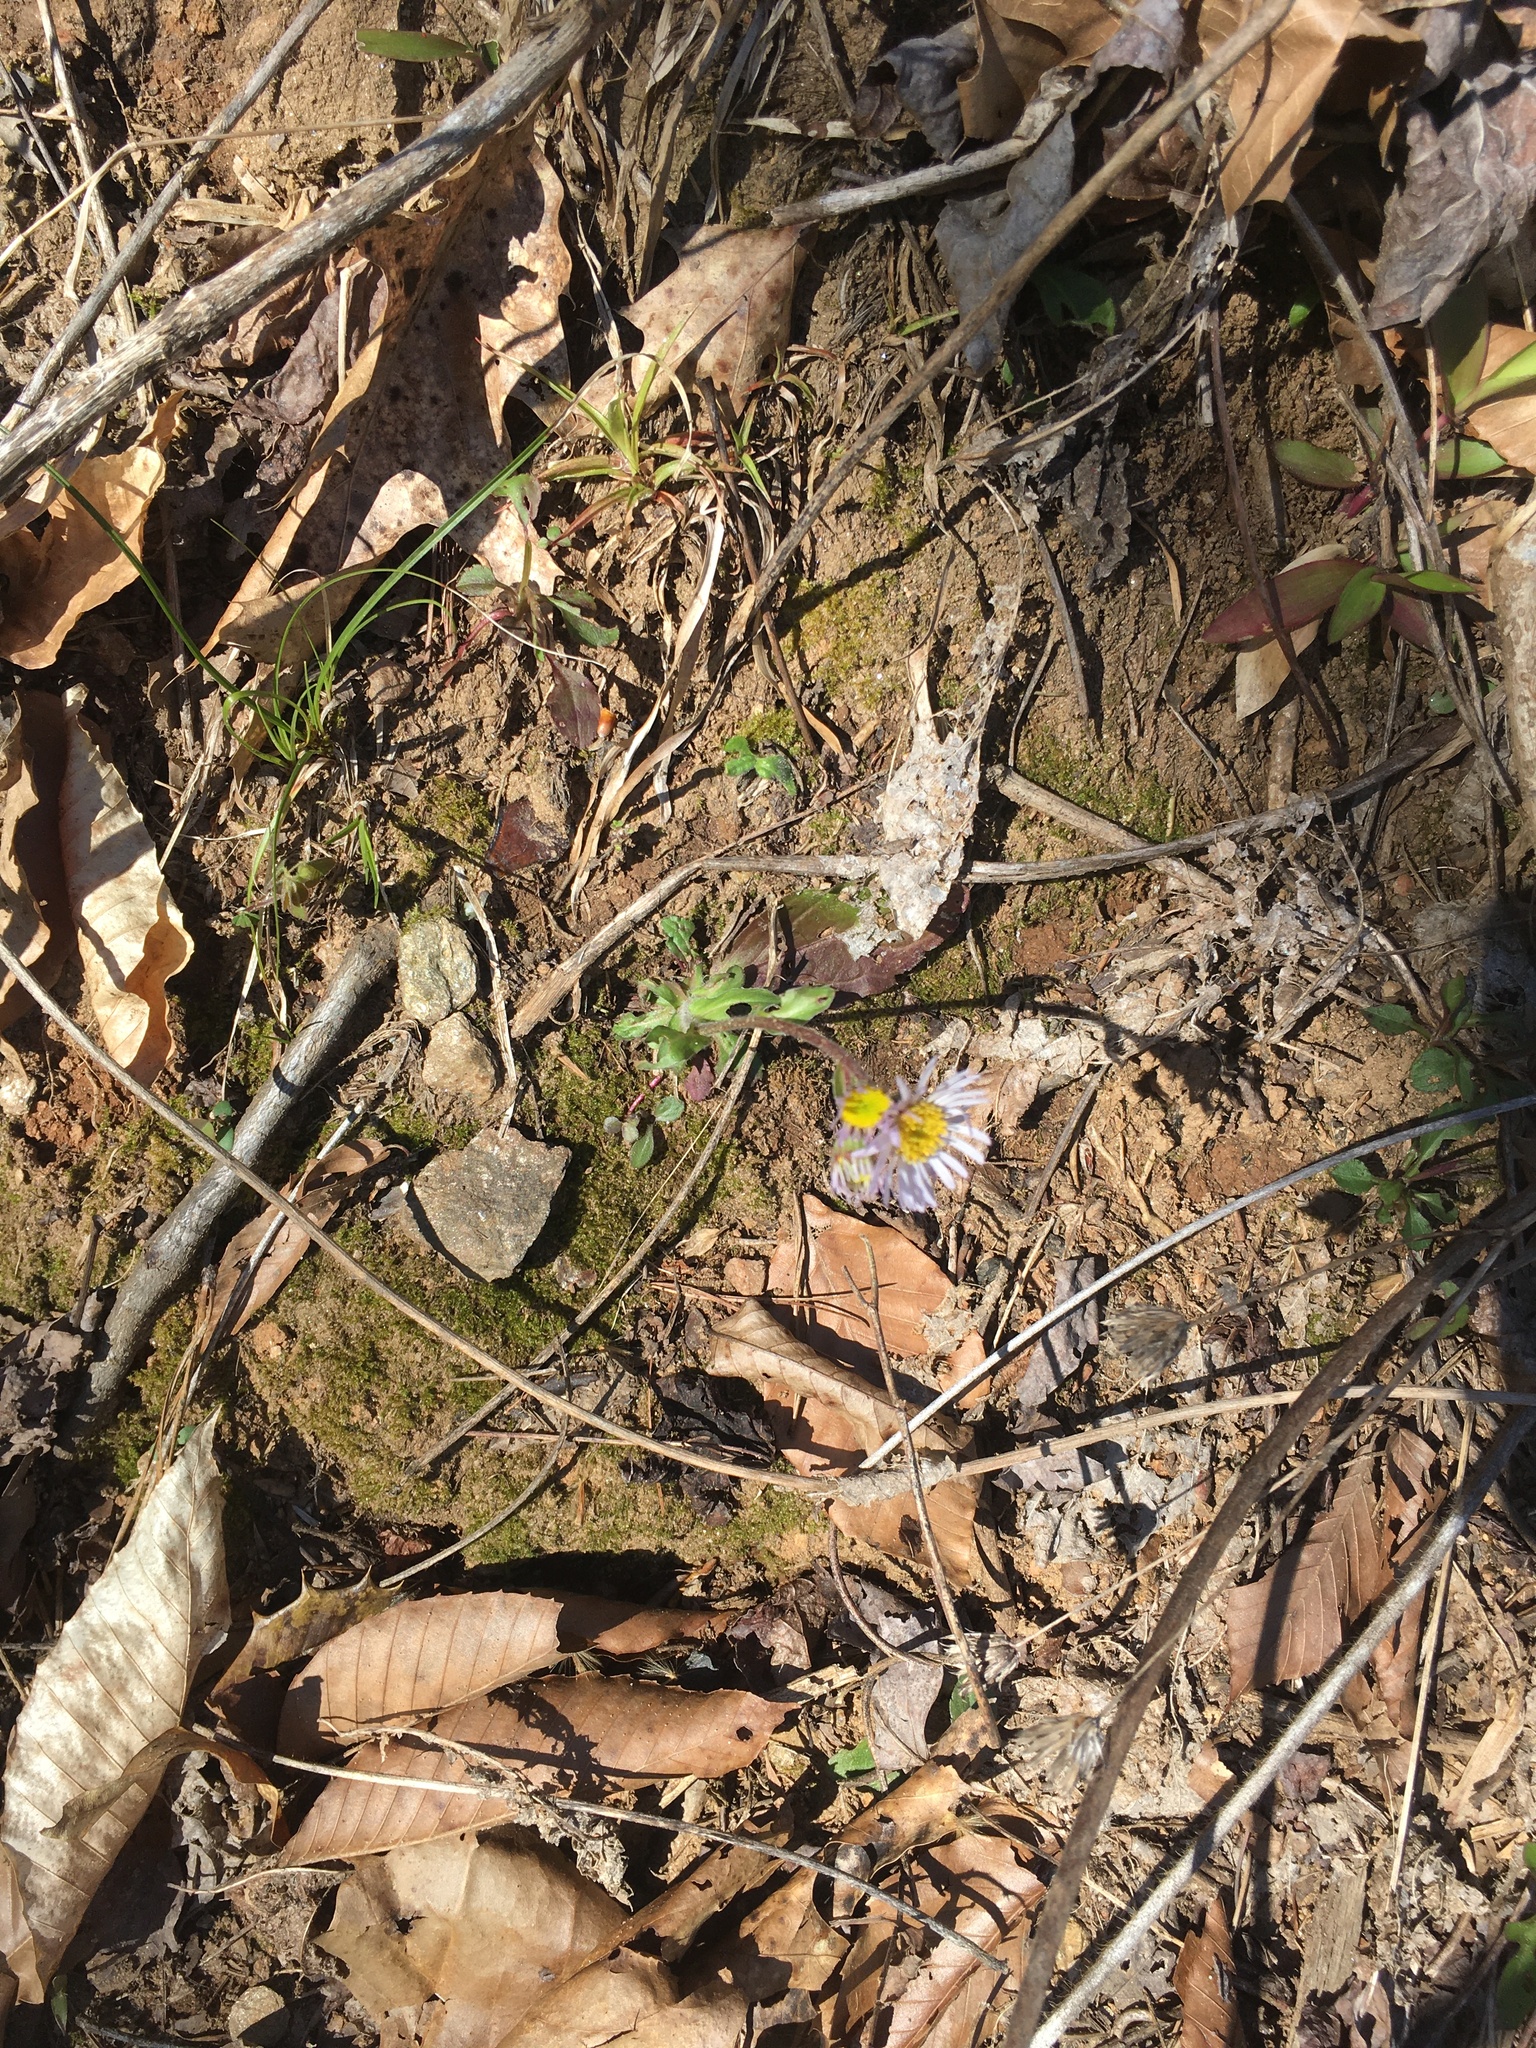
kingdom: Plantae
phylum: Tracheophyta
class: Magnoliopsida
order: Asterales
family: Asteraceae
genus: Erigeron
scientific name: Erigeron pulchellus
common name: Hairy fleabane
